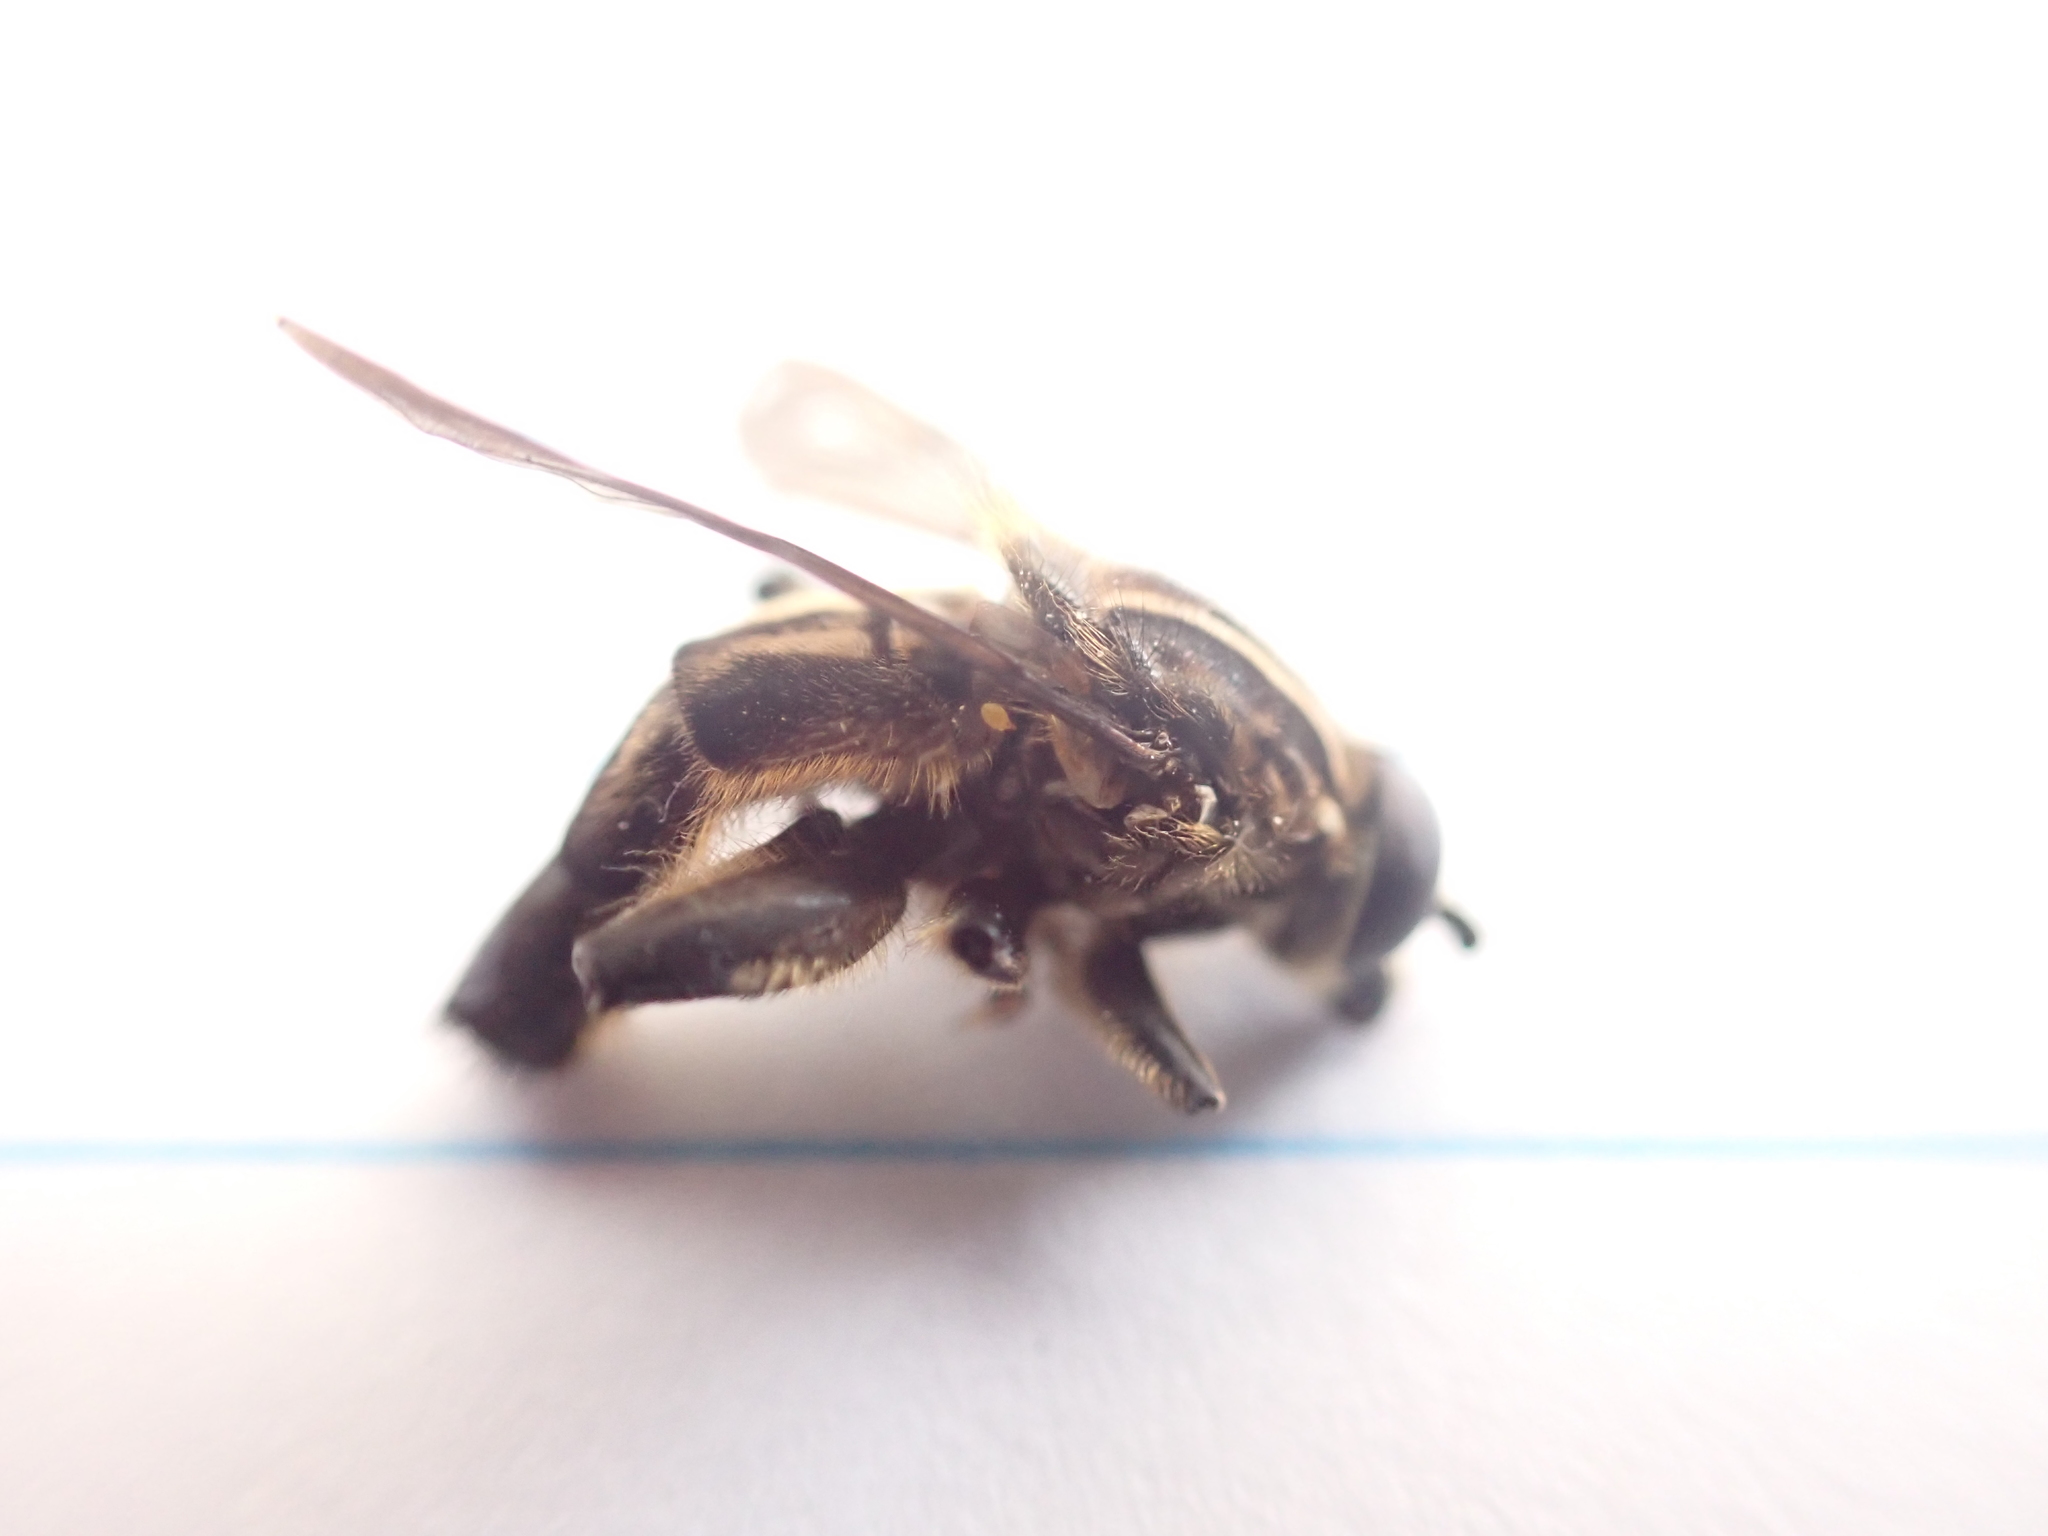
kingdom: Animalia
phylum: Arthropoda
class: Insecta
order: Diptera
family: Syrphidae
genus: Orthoprosopa
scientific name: Orthoprosopa bilineata
